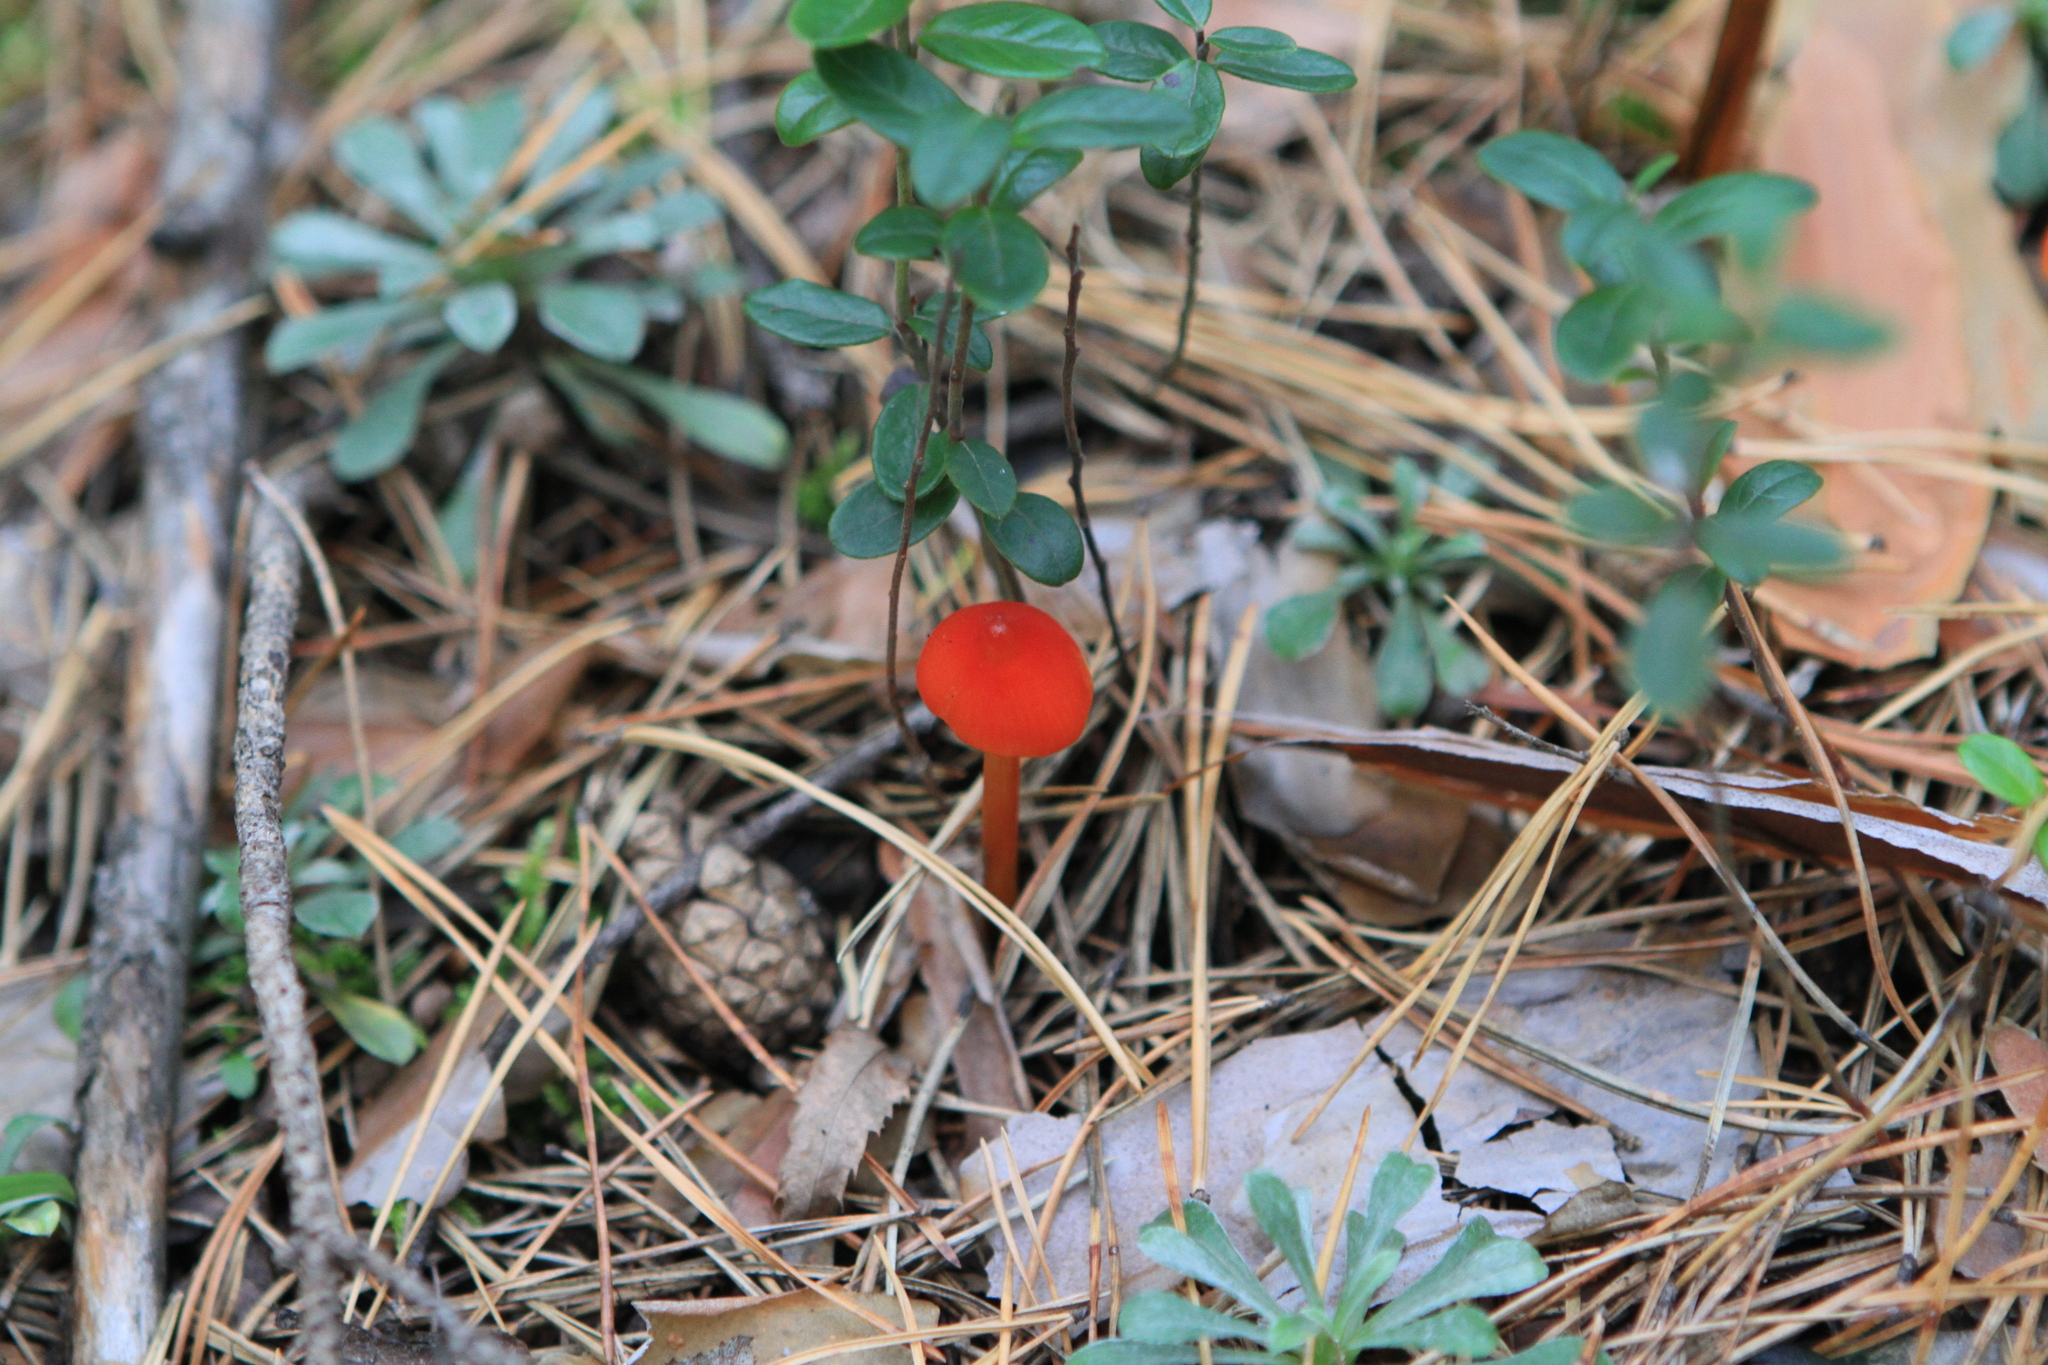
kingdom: Plantae
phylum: Tracheophyta
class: Magnoliopsida
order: Asterales
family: Asteraceae
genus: Antennaria
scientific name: Antennaria dioica
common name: Mountain everlasting
